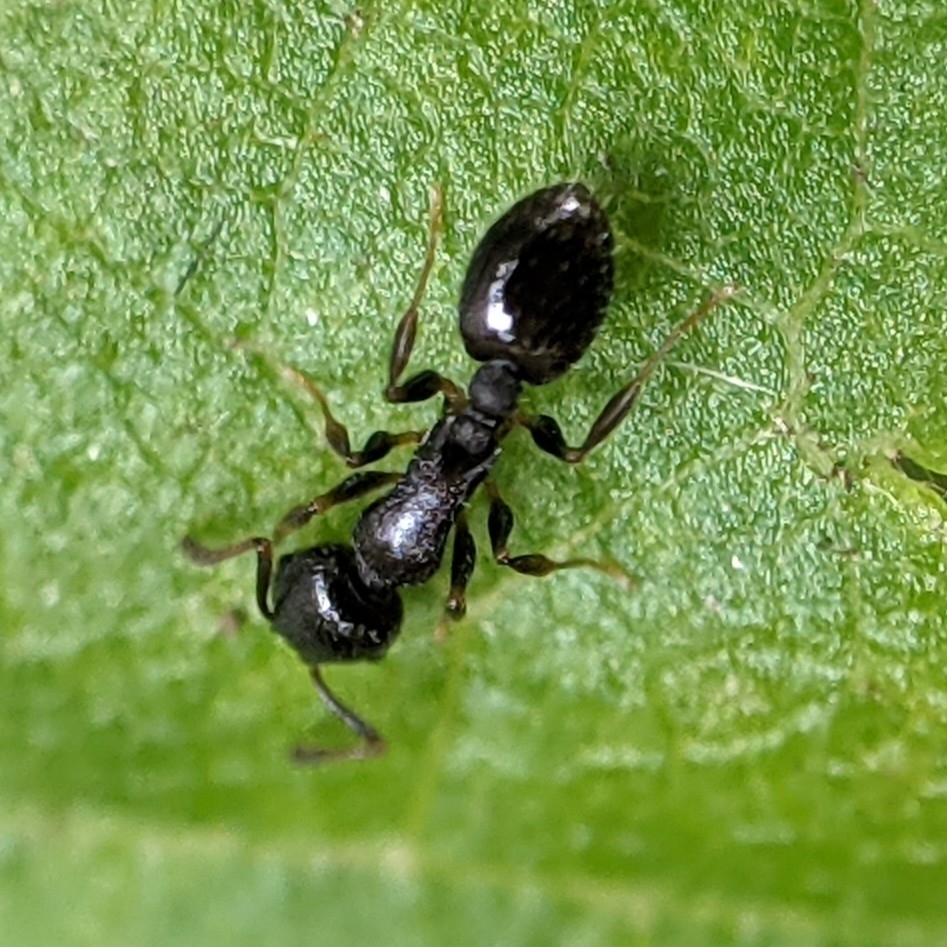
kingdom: Animalia
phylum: Arthropoda
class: Insecta
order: Hymenoptera
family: Formicidae
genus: Temnothorax
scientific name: Temnothorax longispinosus
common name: Long-spined acorn ant
